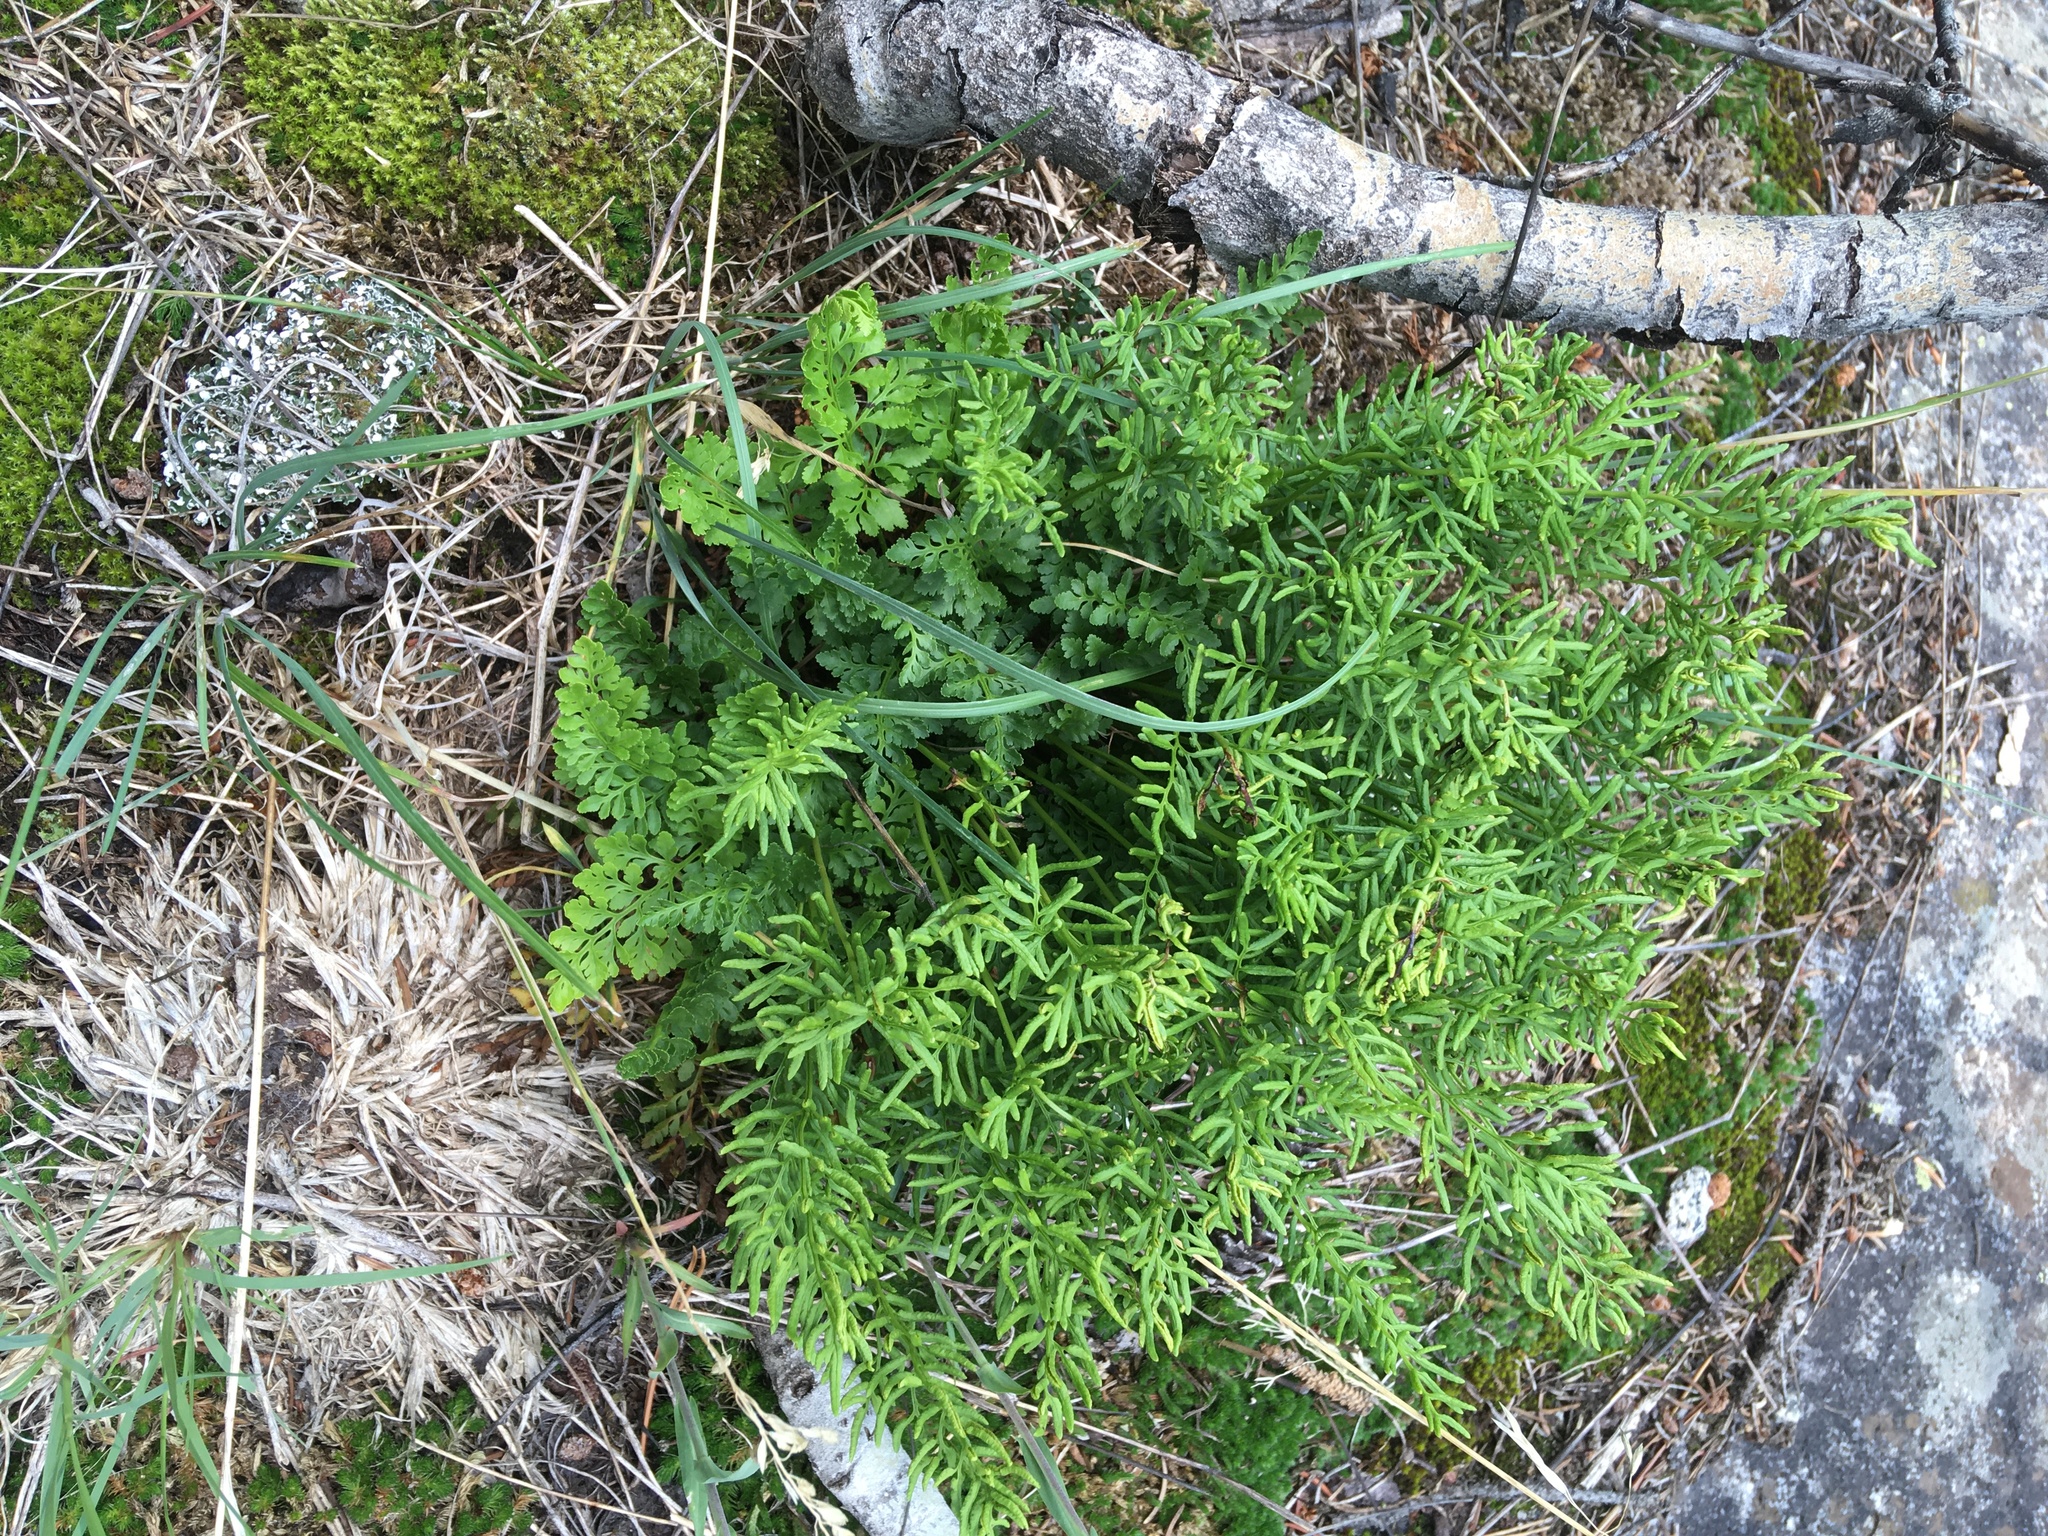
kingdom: Plantae
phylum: Tracheophyta
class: Polypodiopsida
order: Polypodiales
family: Pteridaceae
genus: Cryptogramma
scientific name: Cryptogramma acrostichoides
